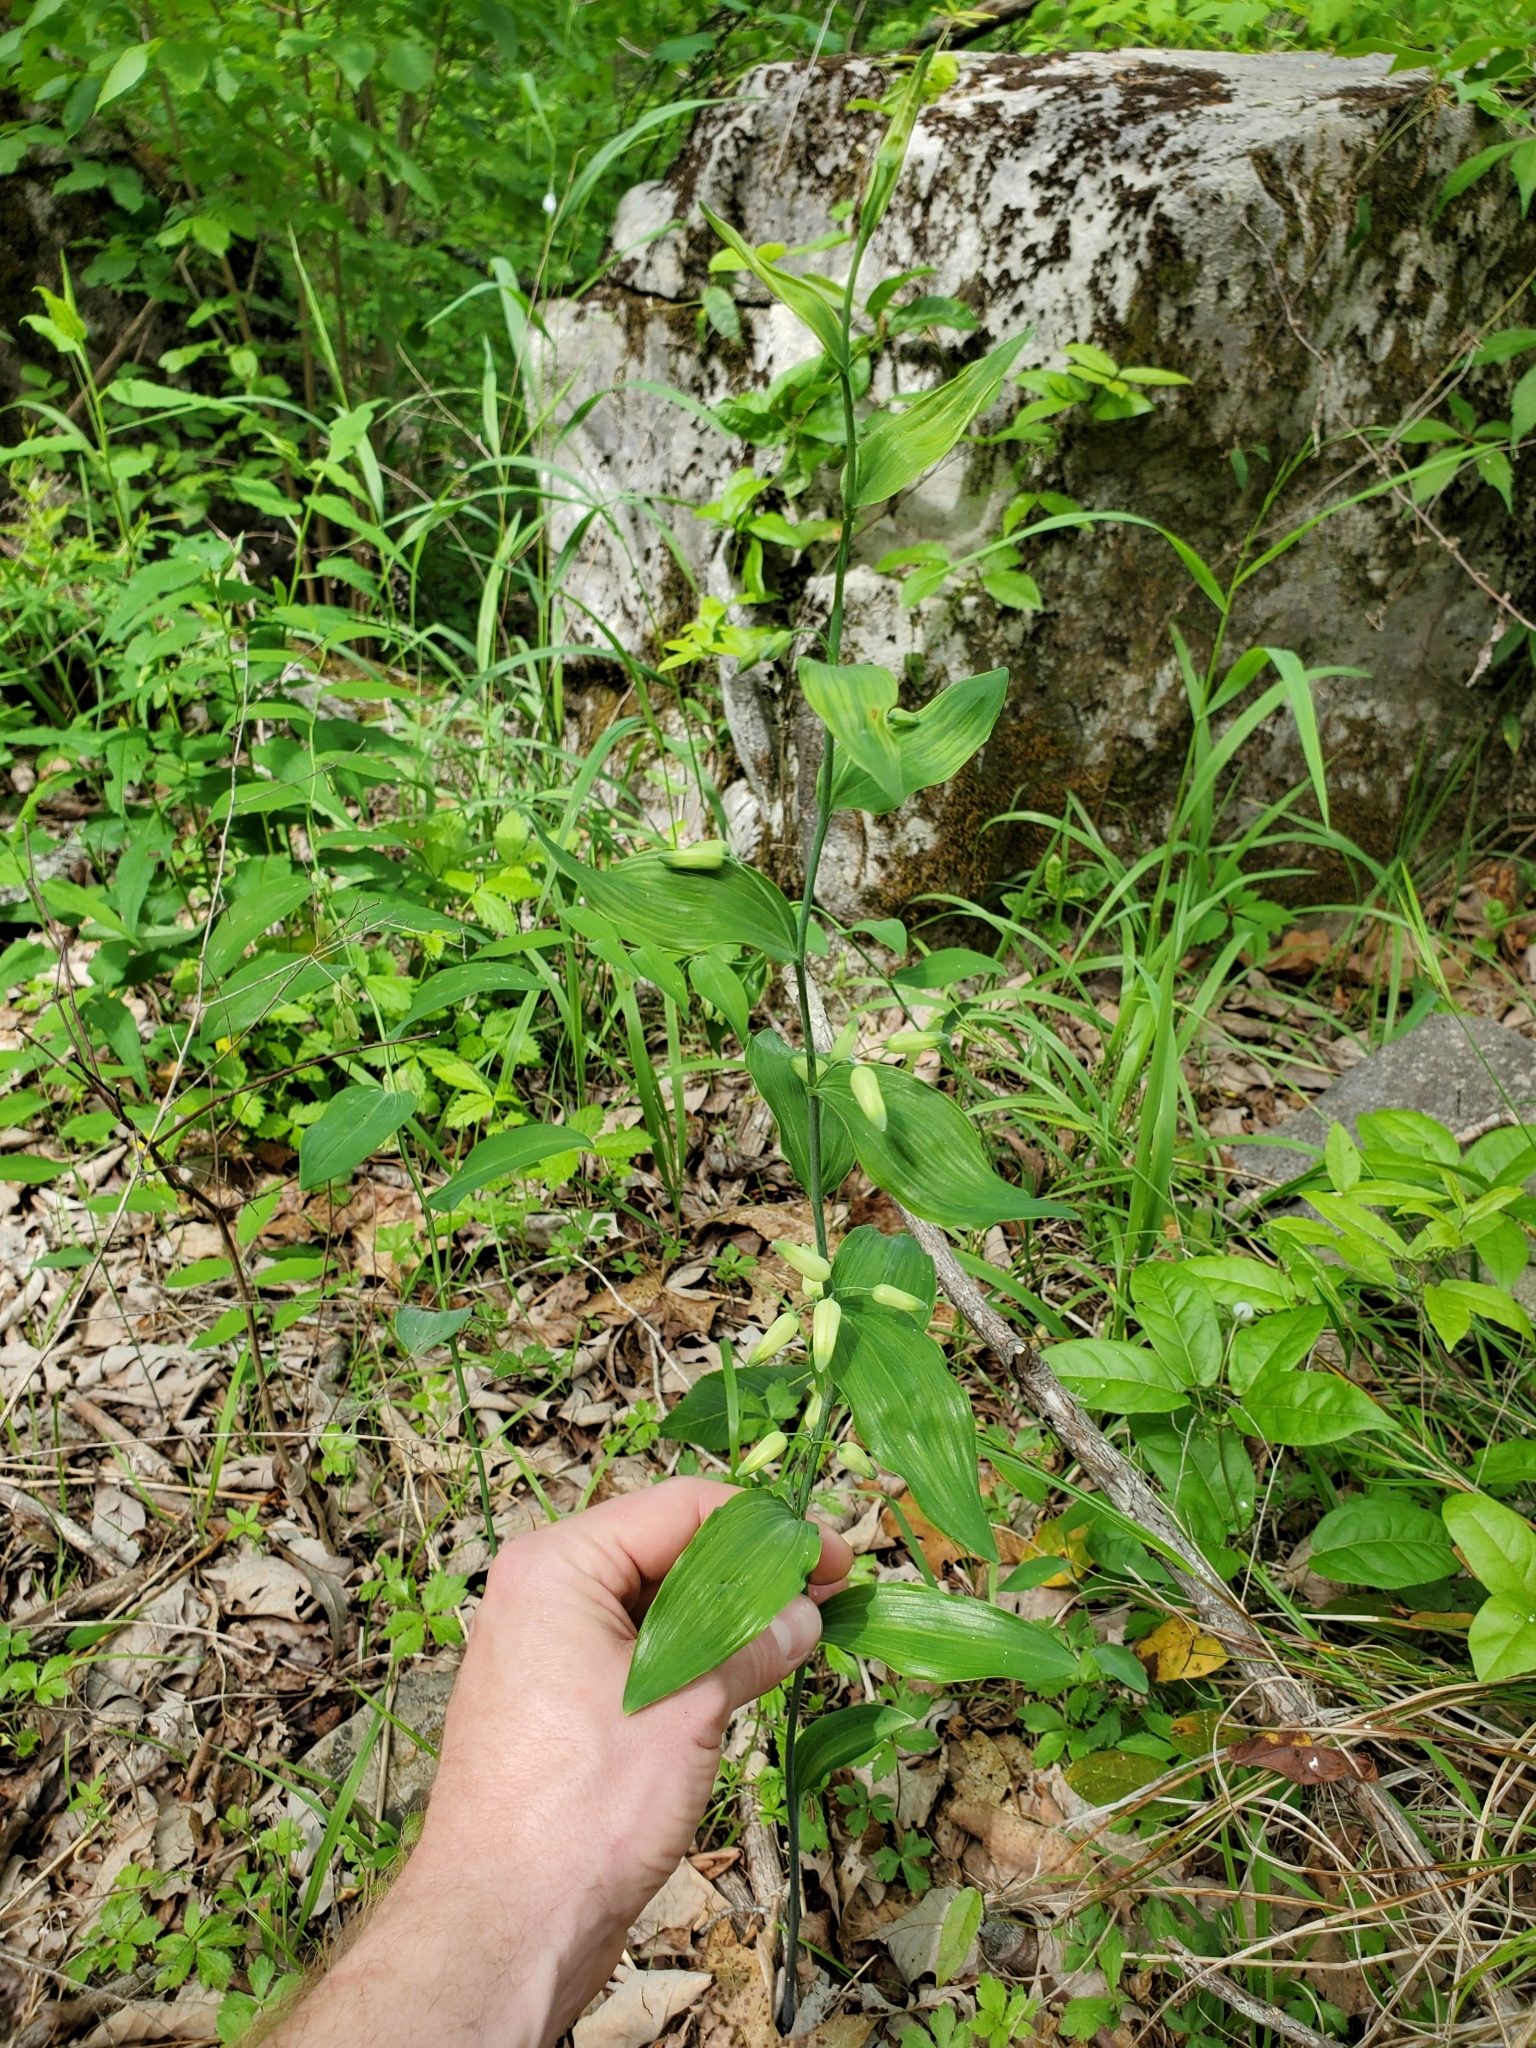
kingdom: Plantae
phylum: Tracheophyta
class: Liliopsida
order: Asparagales
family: Asparagaceae
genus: Polygonatum
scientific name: Polygonatum biflorum
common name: American solomon's-seal
